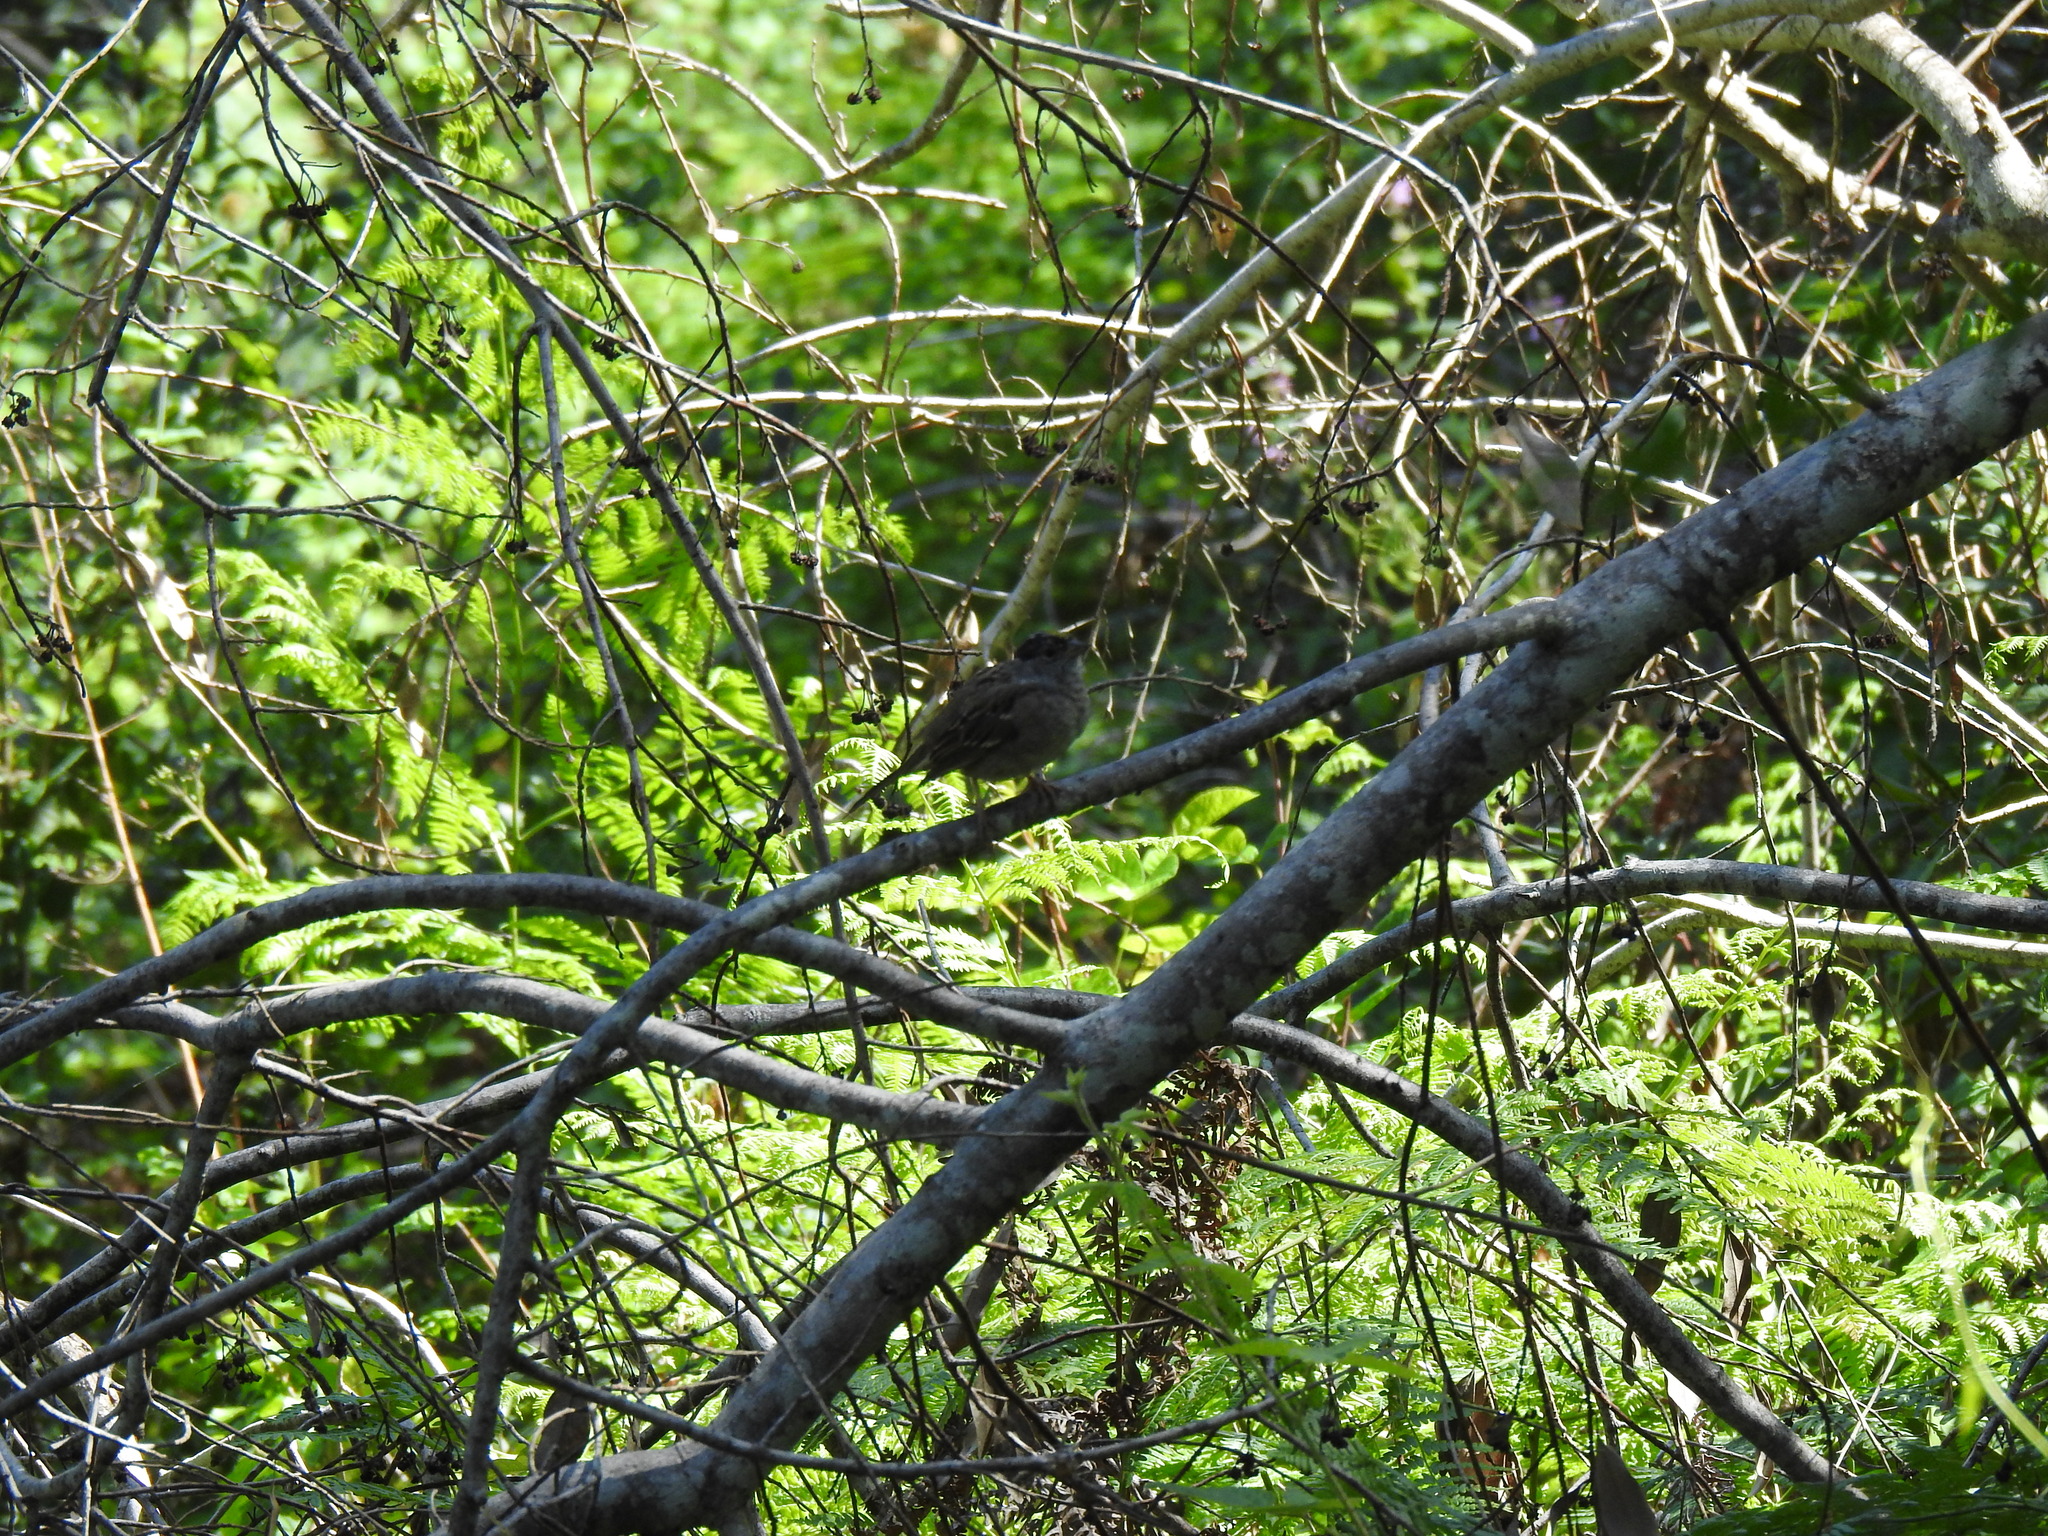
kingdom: Animalia
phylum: Chordata
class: Aves
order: Passeriformes
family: Passerellidae
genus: Zonotrichia
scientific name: Zonotrichia atricapilla
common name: Golden-crowned sparrow
